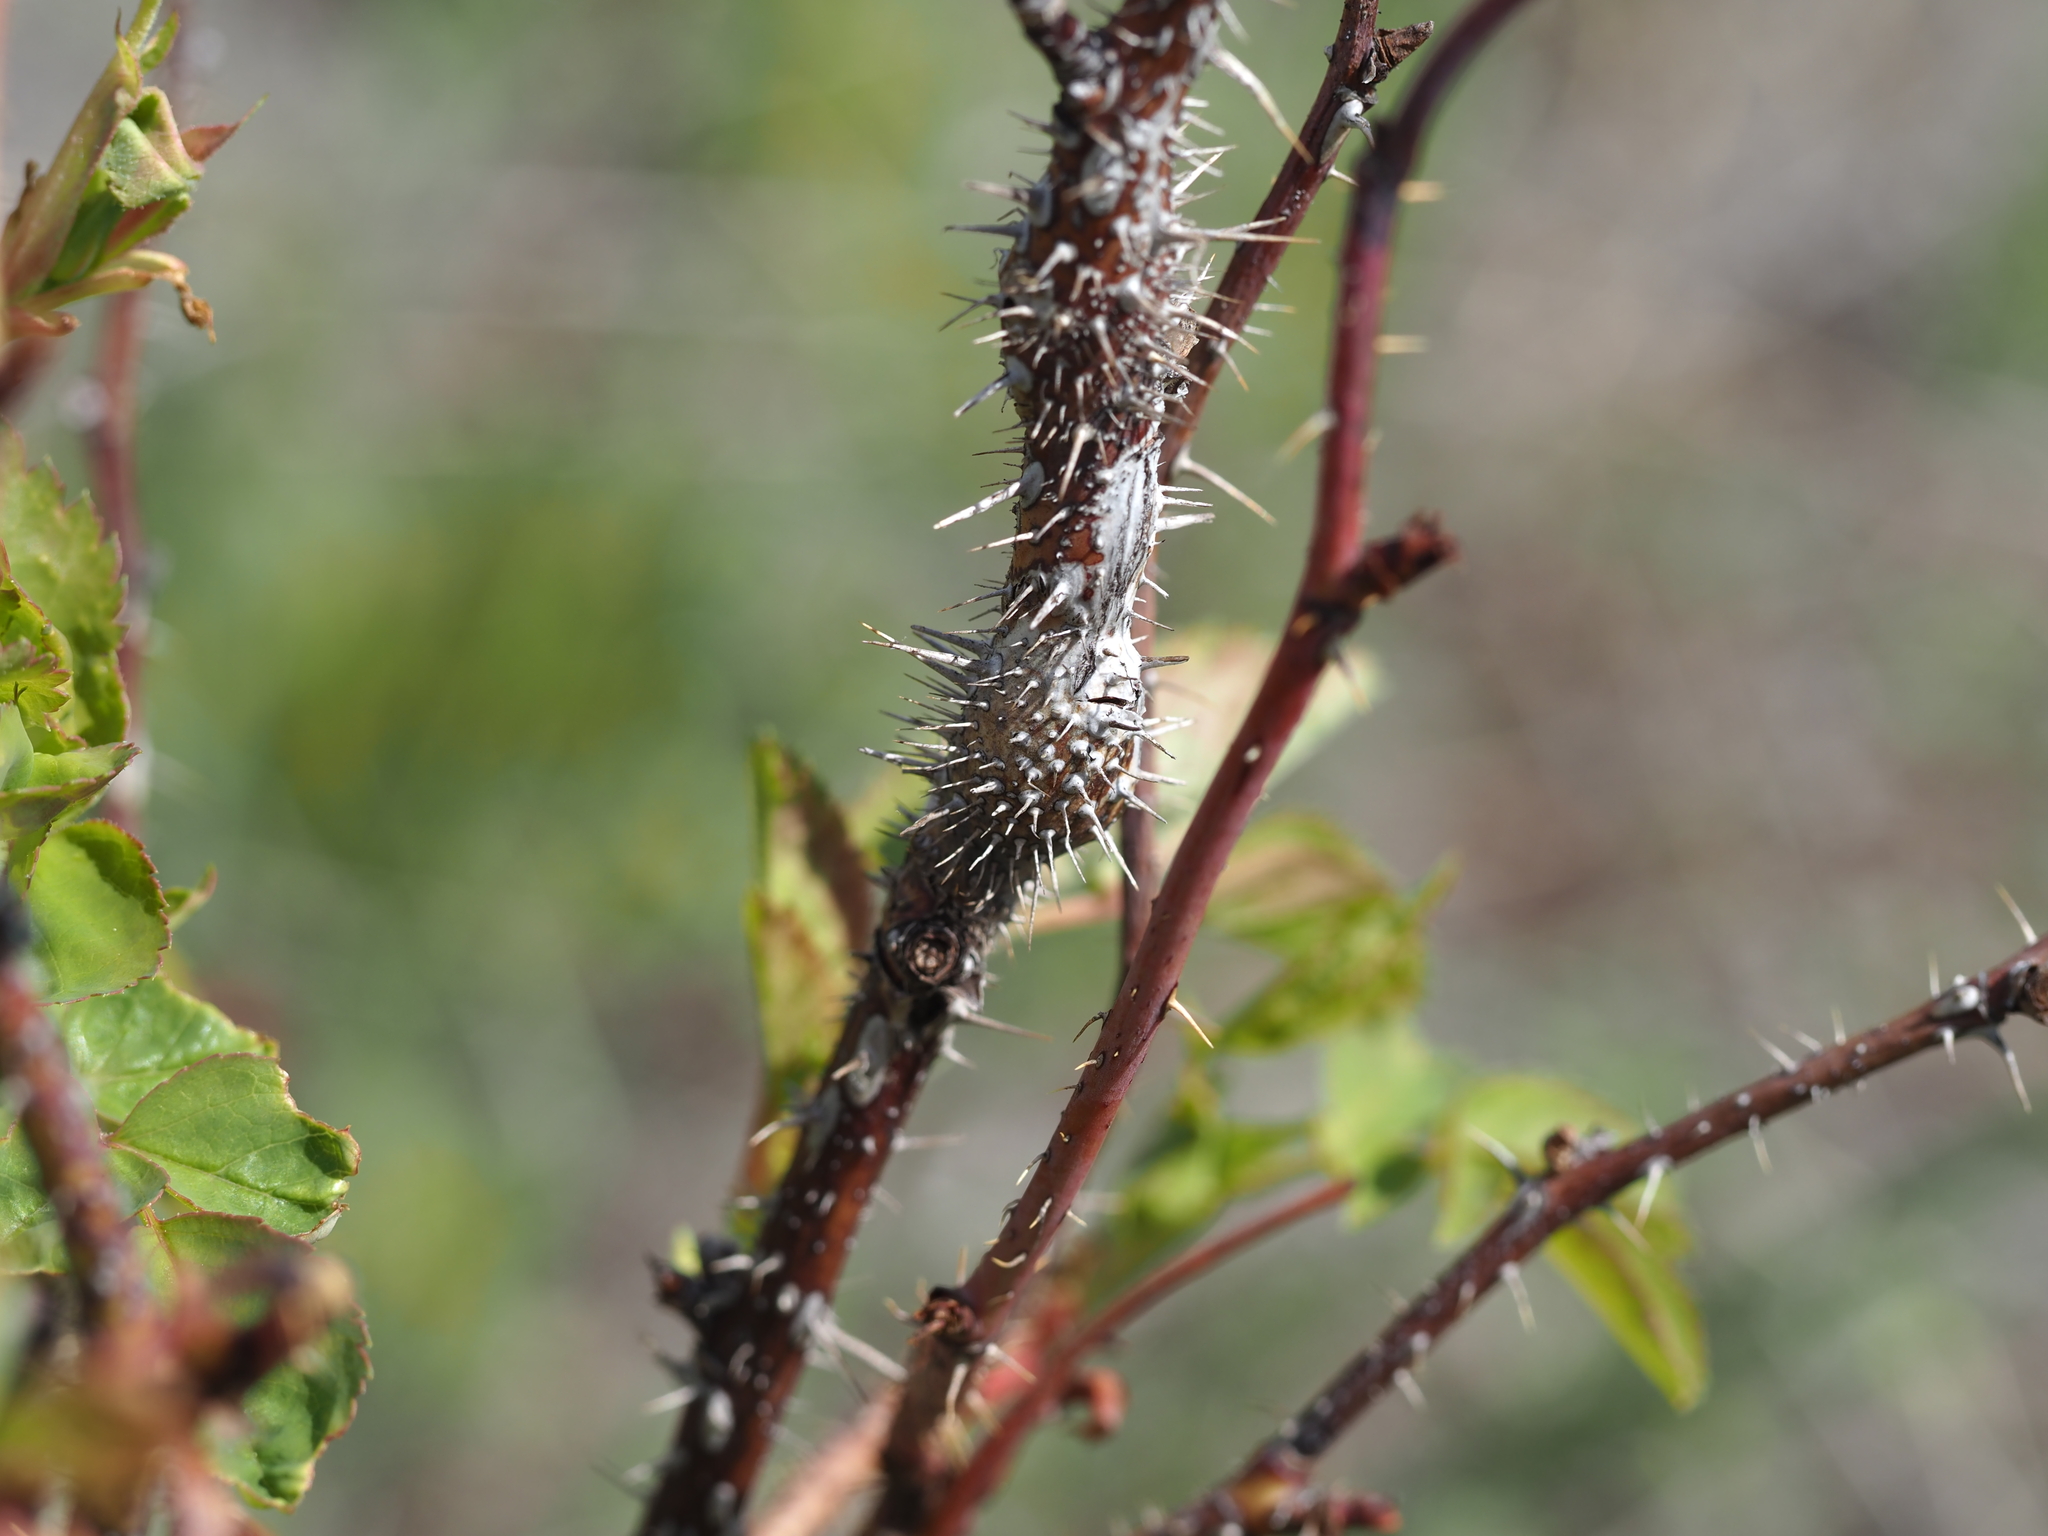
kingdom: Animalia
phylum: Arthropoda
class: Insecta
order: Hymenoptera
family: Cynipidae
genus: Diplolepis
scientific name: Diplolepis triforma
